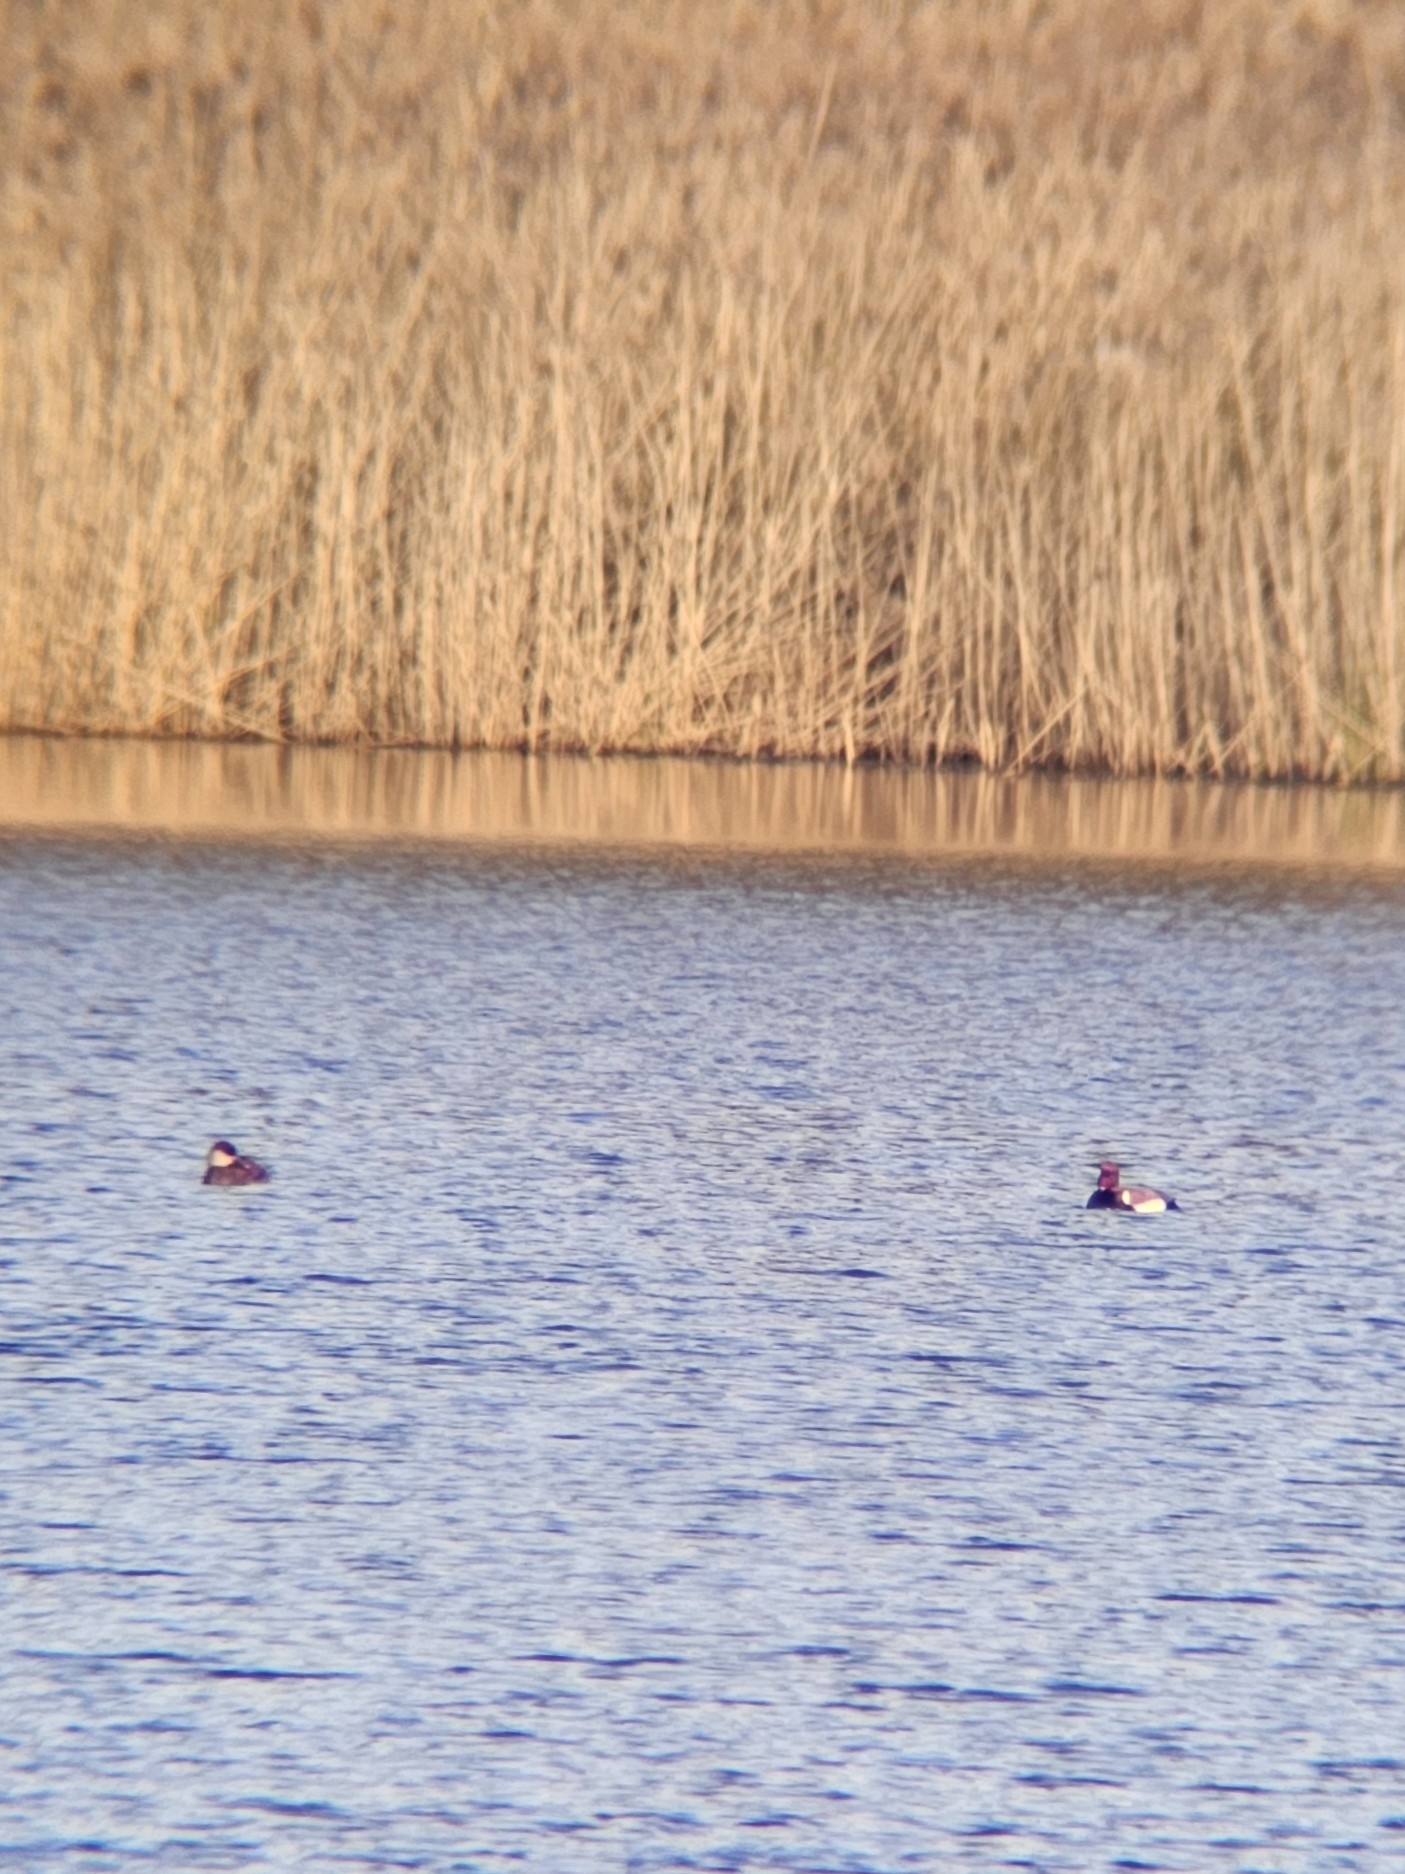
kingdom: Animalia
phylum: Chordata
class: Aves
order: Anseriformes
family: Anatidae
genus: Netta
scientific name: Netta rufina
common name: Red-crested pochard
